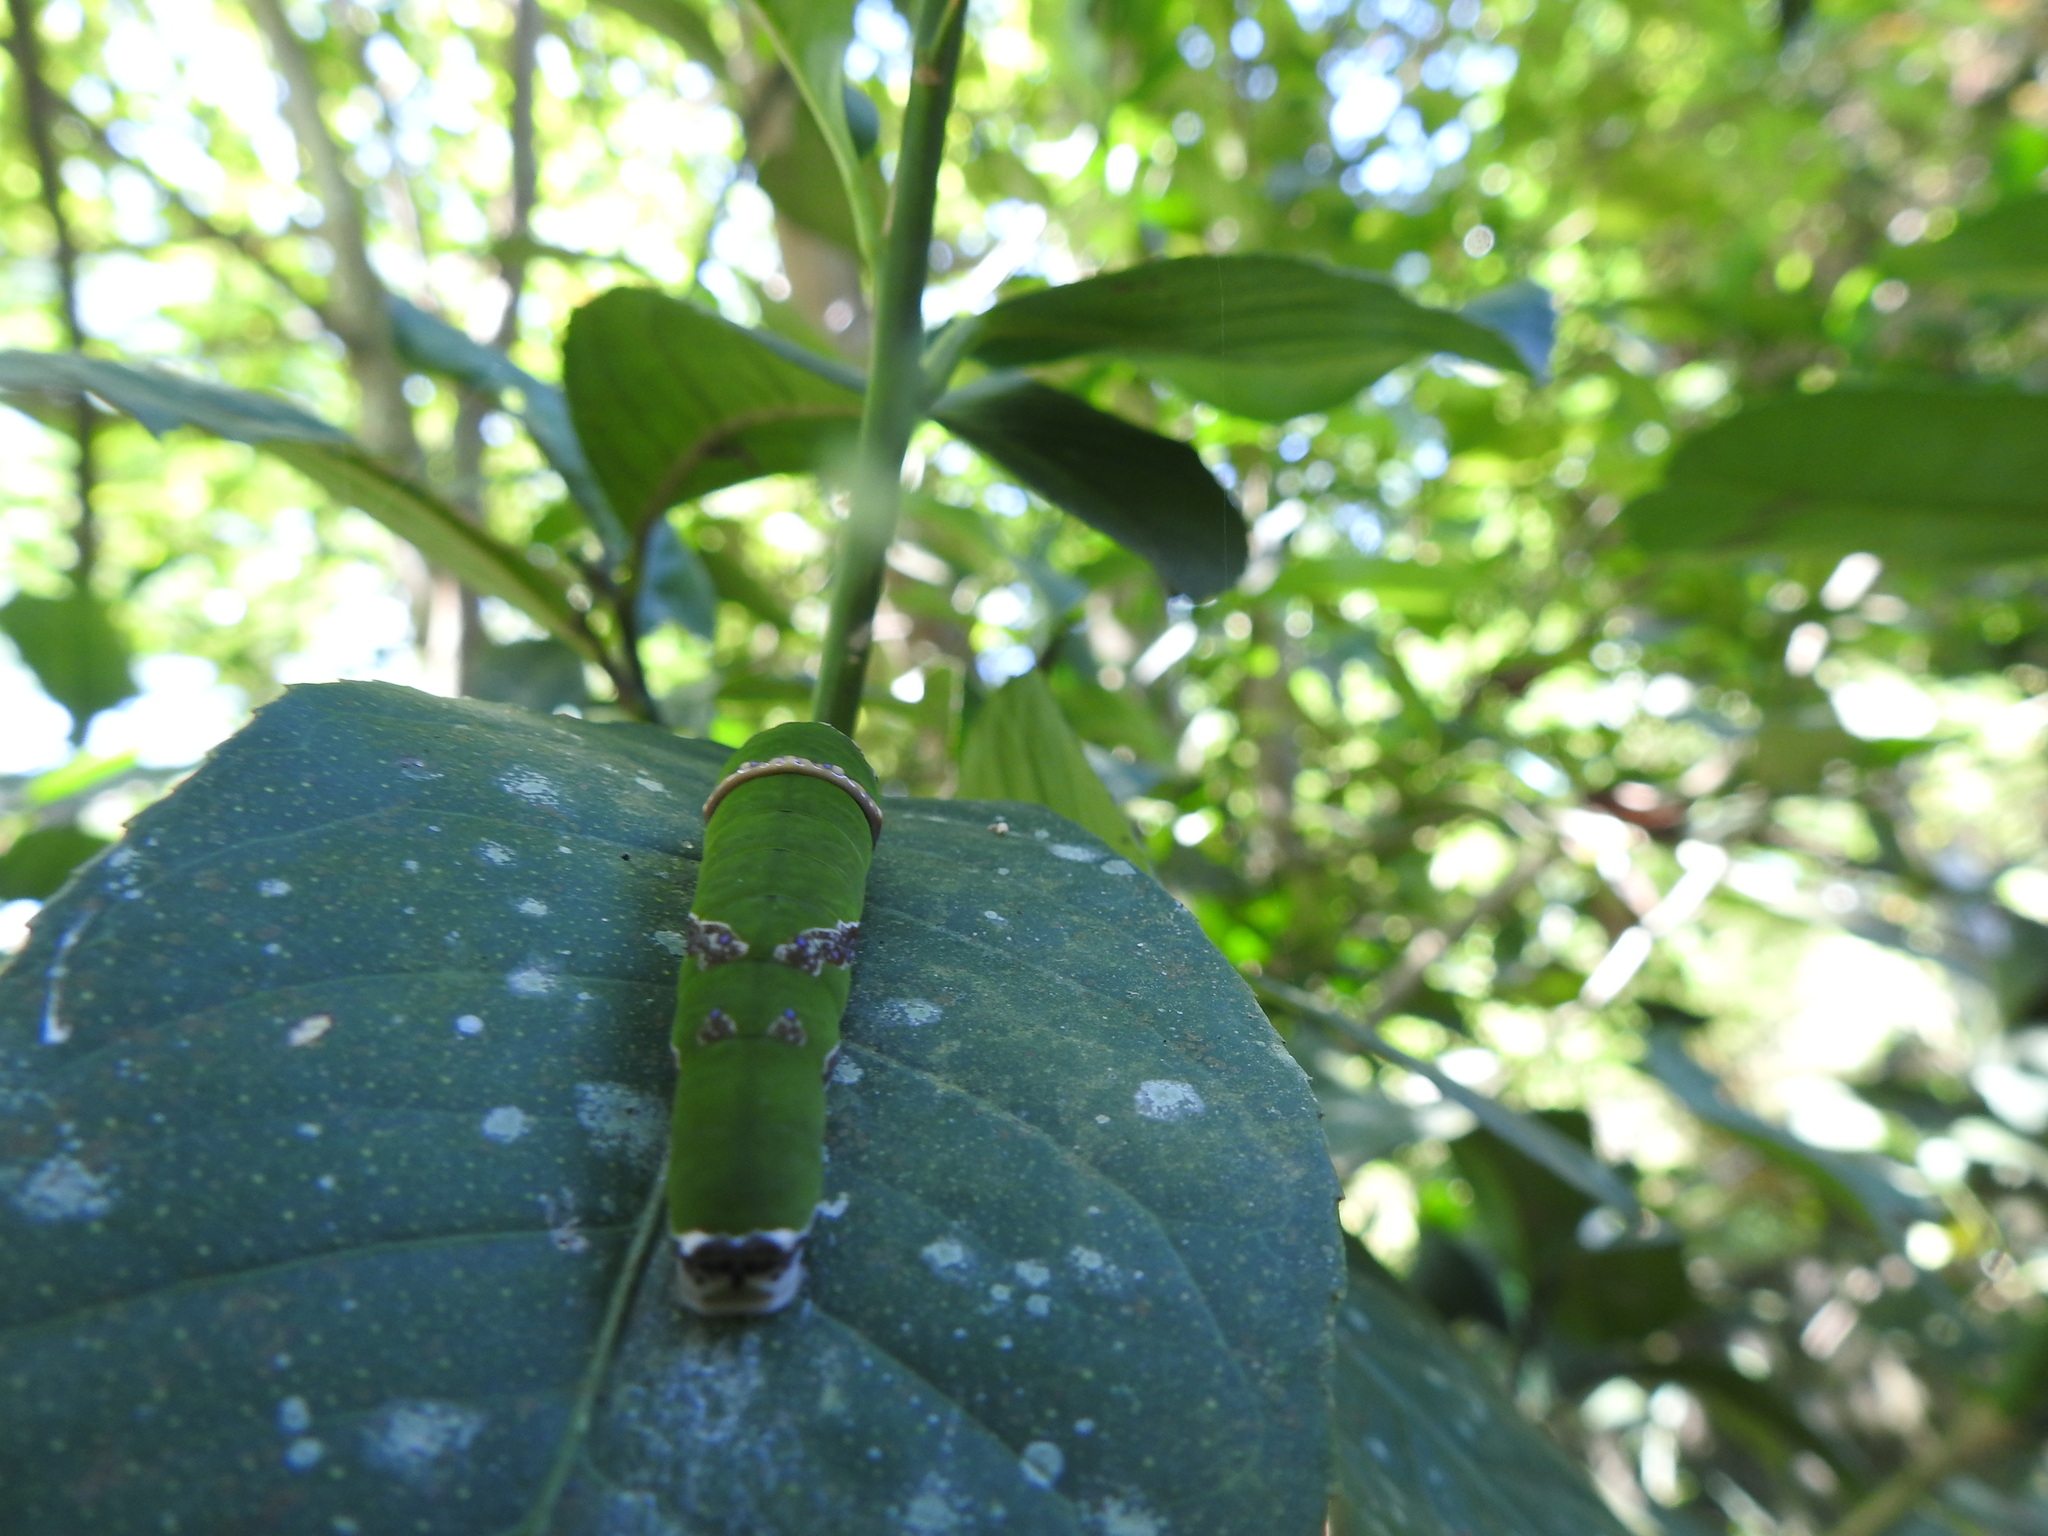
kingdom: Animalia
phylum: Arthropoda
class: Insecta
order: Lepidoptera
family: Papilionidae
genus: Papilio
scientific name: Papilio demoleus
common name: Lime butterfly
